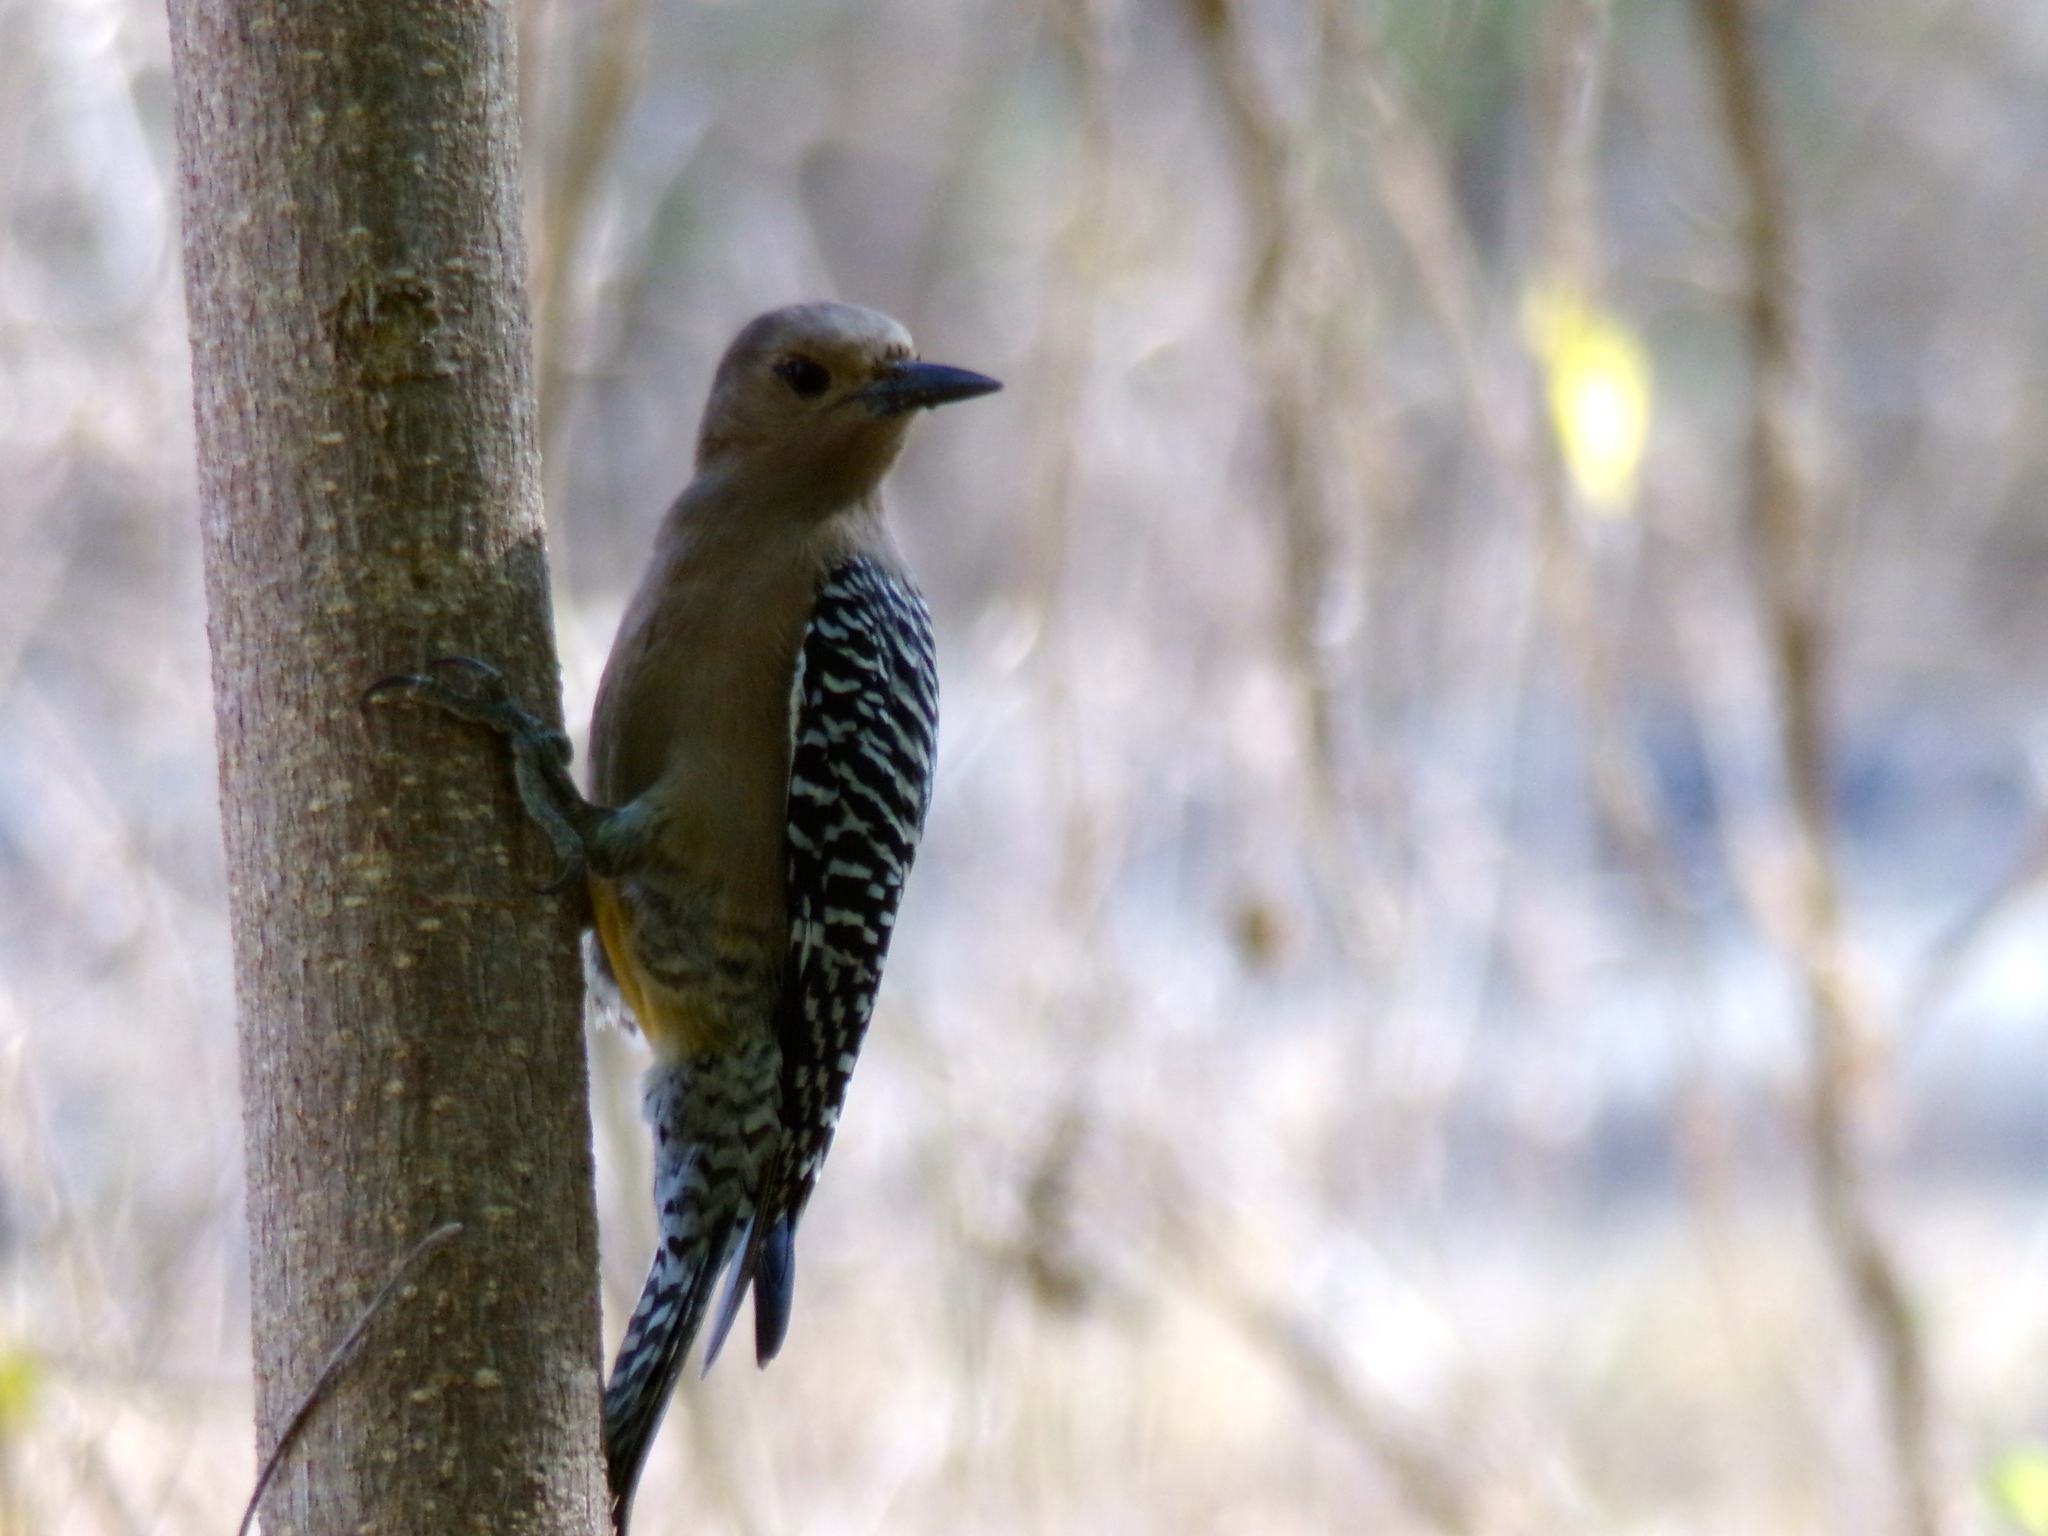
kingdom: Animalia
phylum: Chordata
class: Aves
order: Piciformes
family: Picidae
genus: Melanerpes
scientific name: Melanerpes uropygialis
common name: Gila woodpecker
